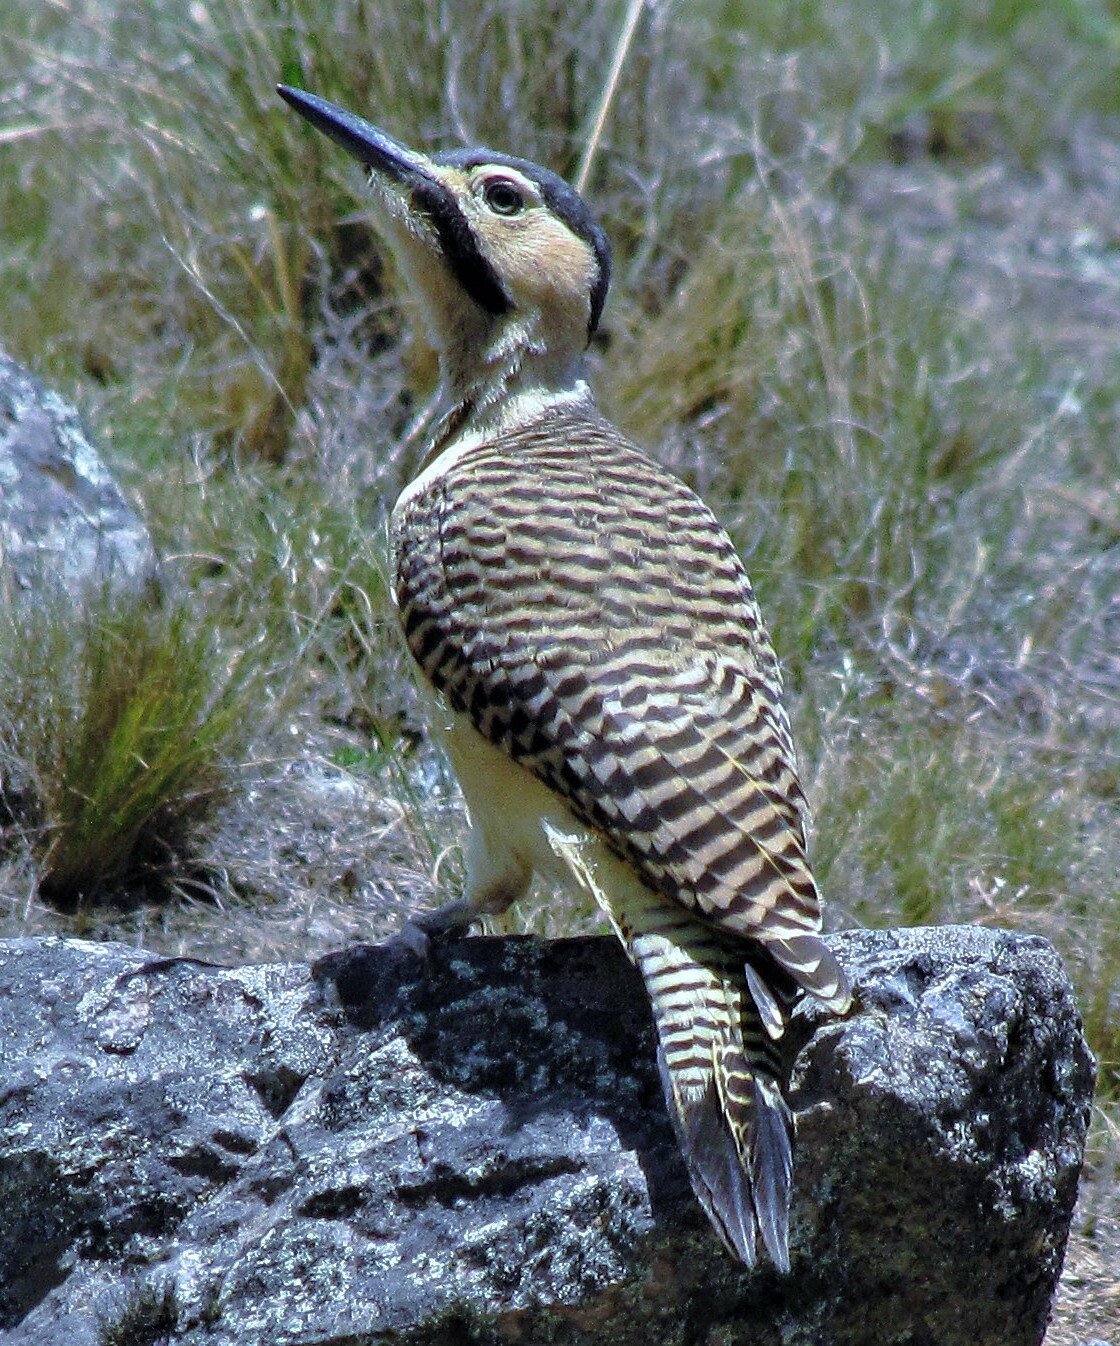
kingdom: Animalia
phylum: Chordata
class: Aves
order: Piciformes
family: Picidae
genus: Colaptes
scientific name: Colaptes rupicola
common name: Andean flicker
